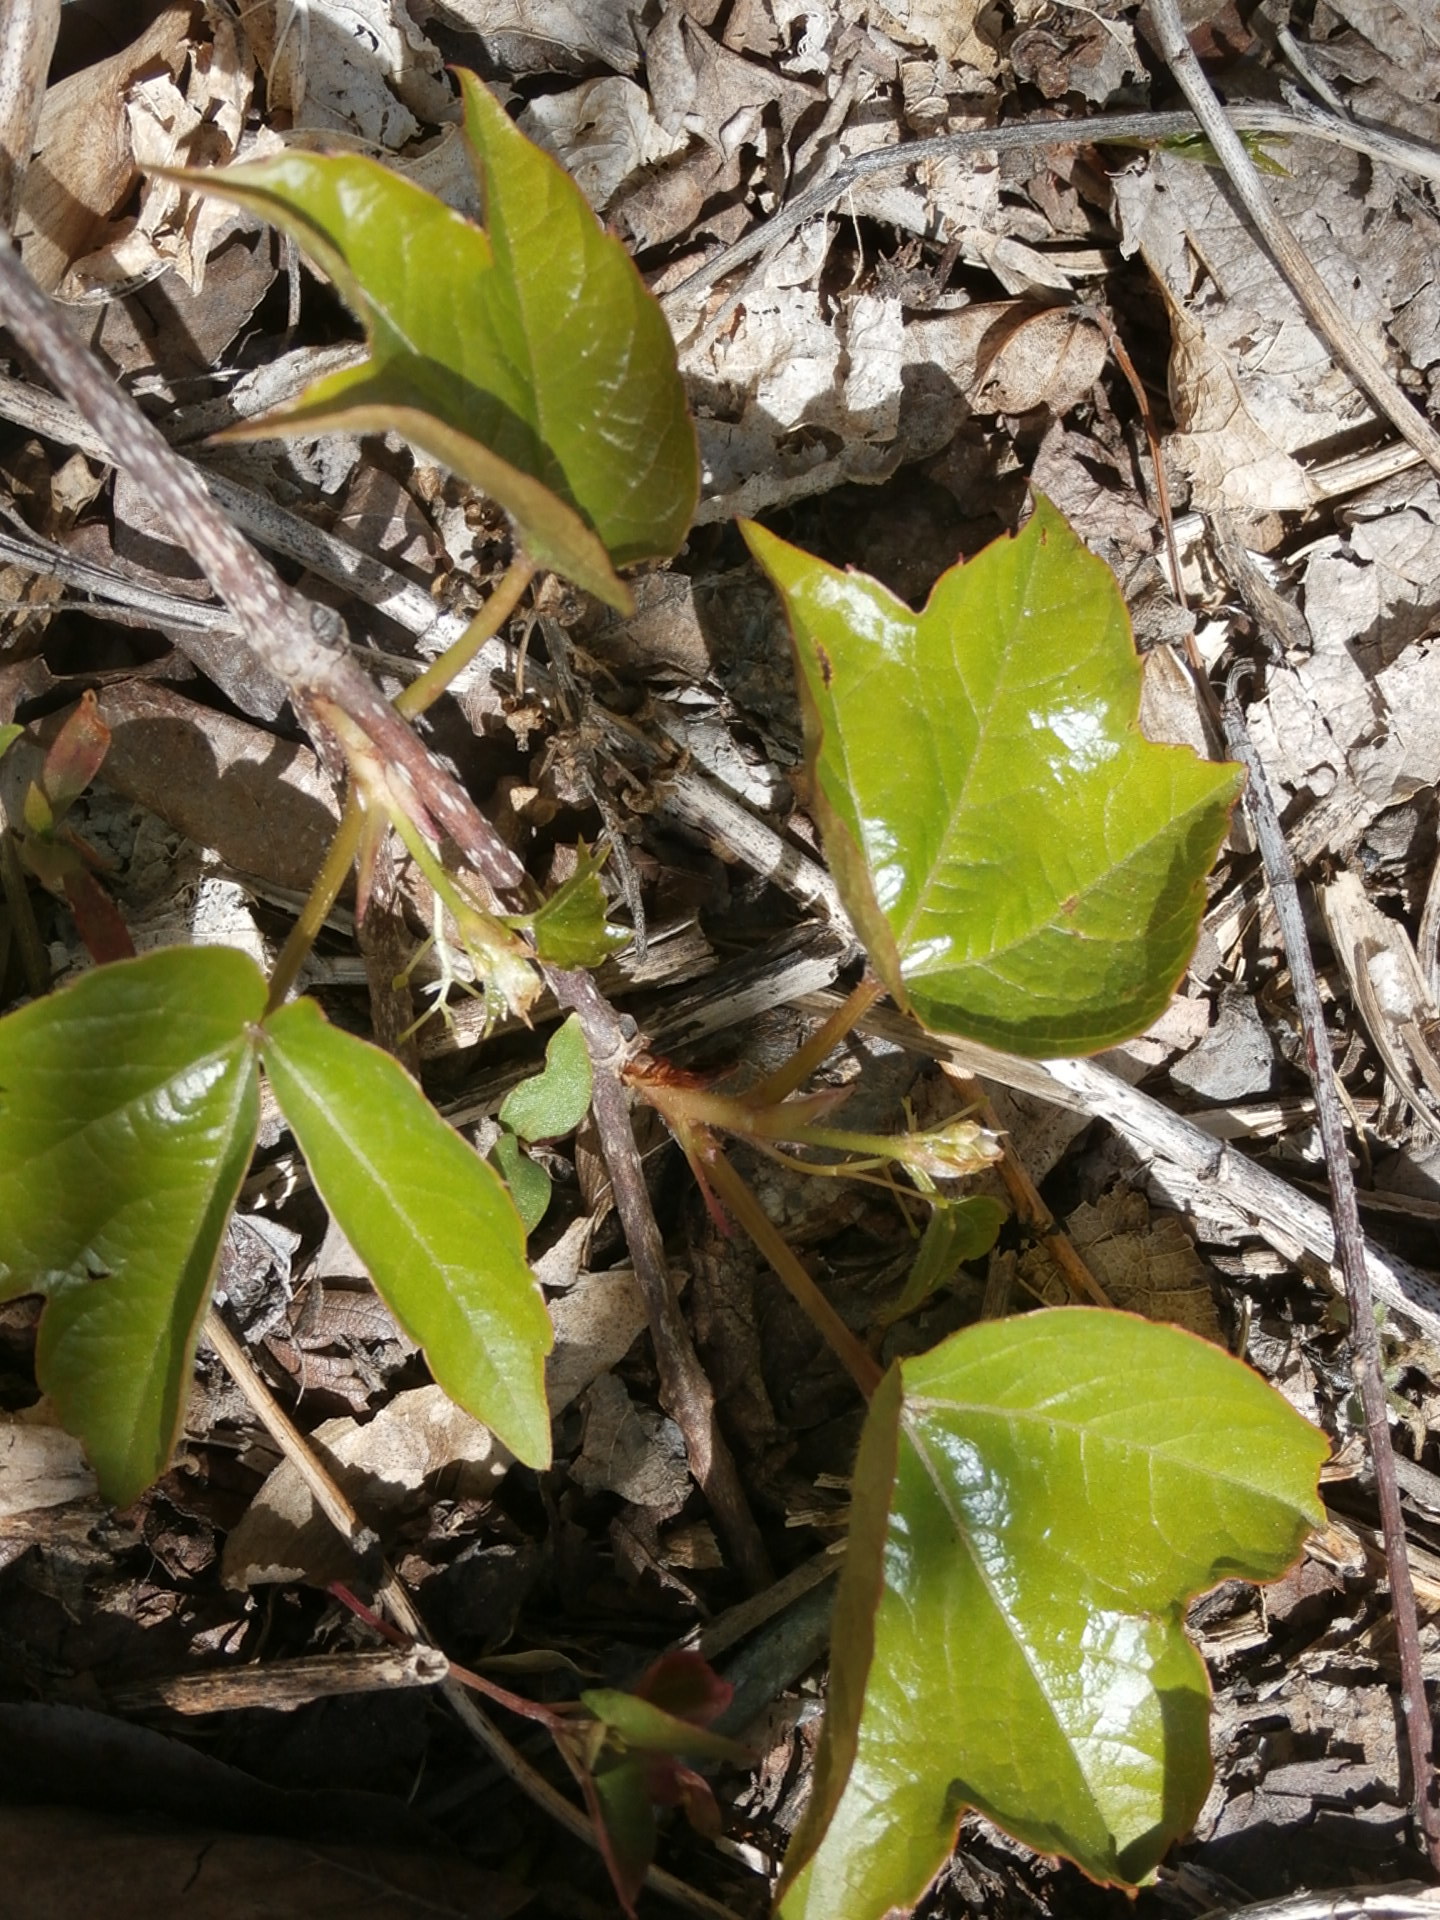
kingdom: Plantae
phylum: Tracheophyta
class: Magnoliopsida
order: Vitales
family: Vitaceae
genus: Parthenocissus
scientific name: Parthenocissus tricuspidata
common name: Boston ivy
